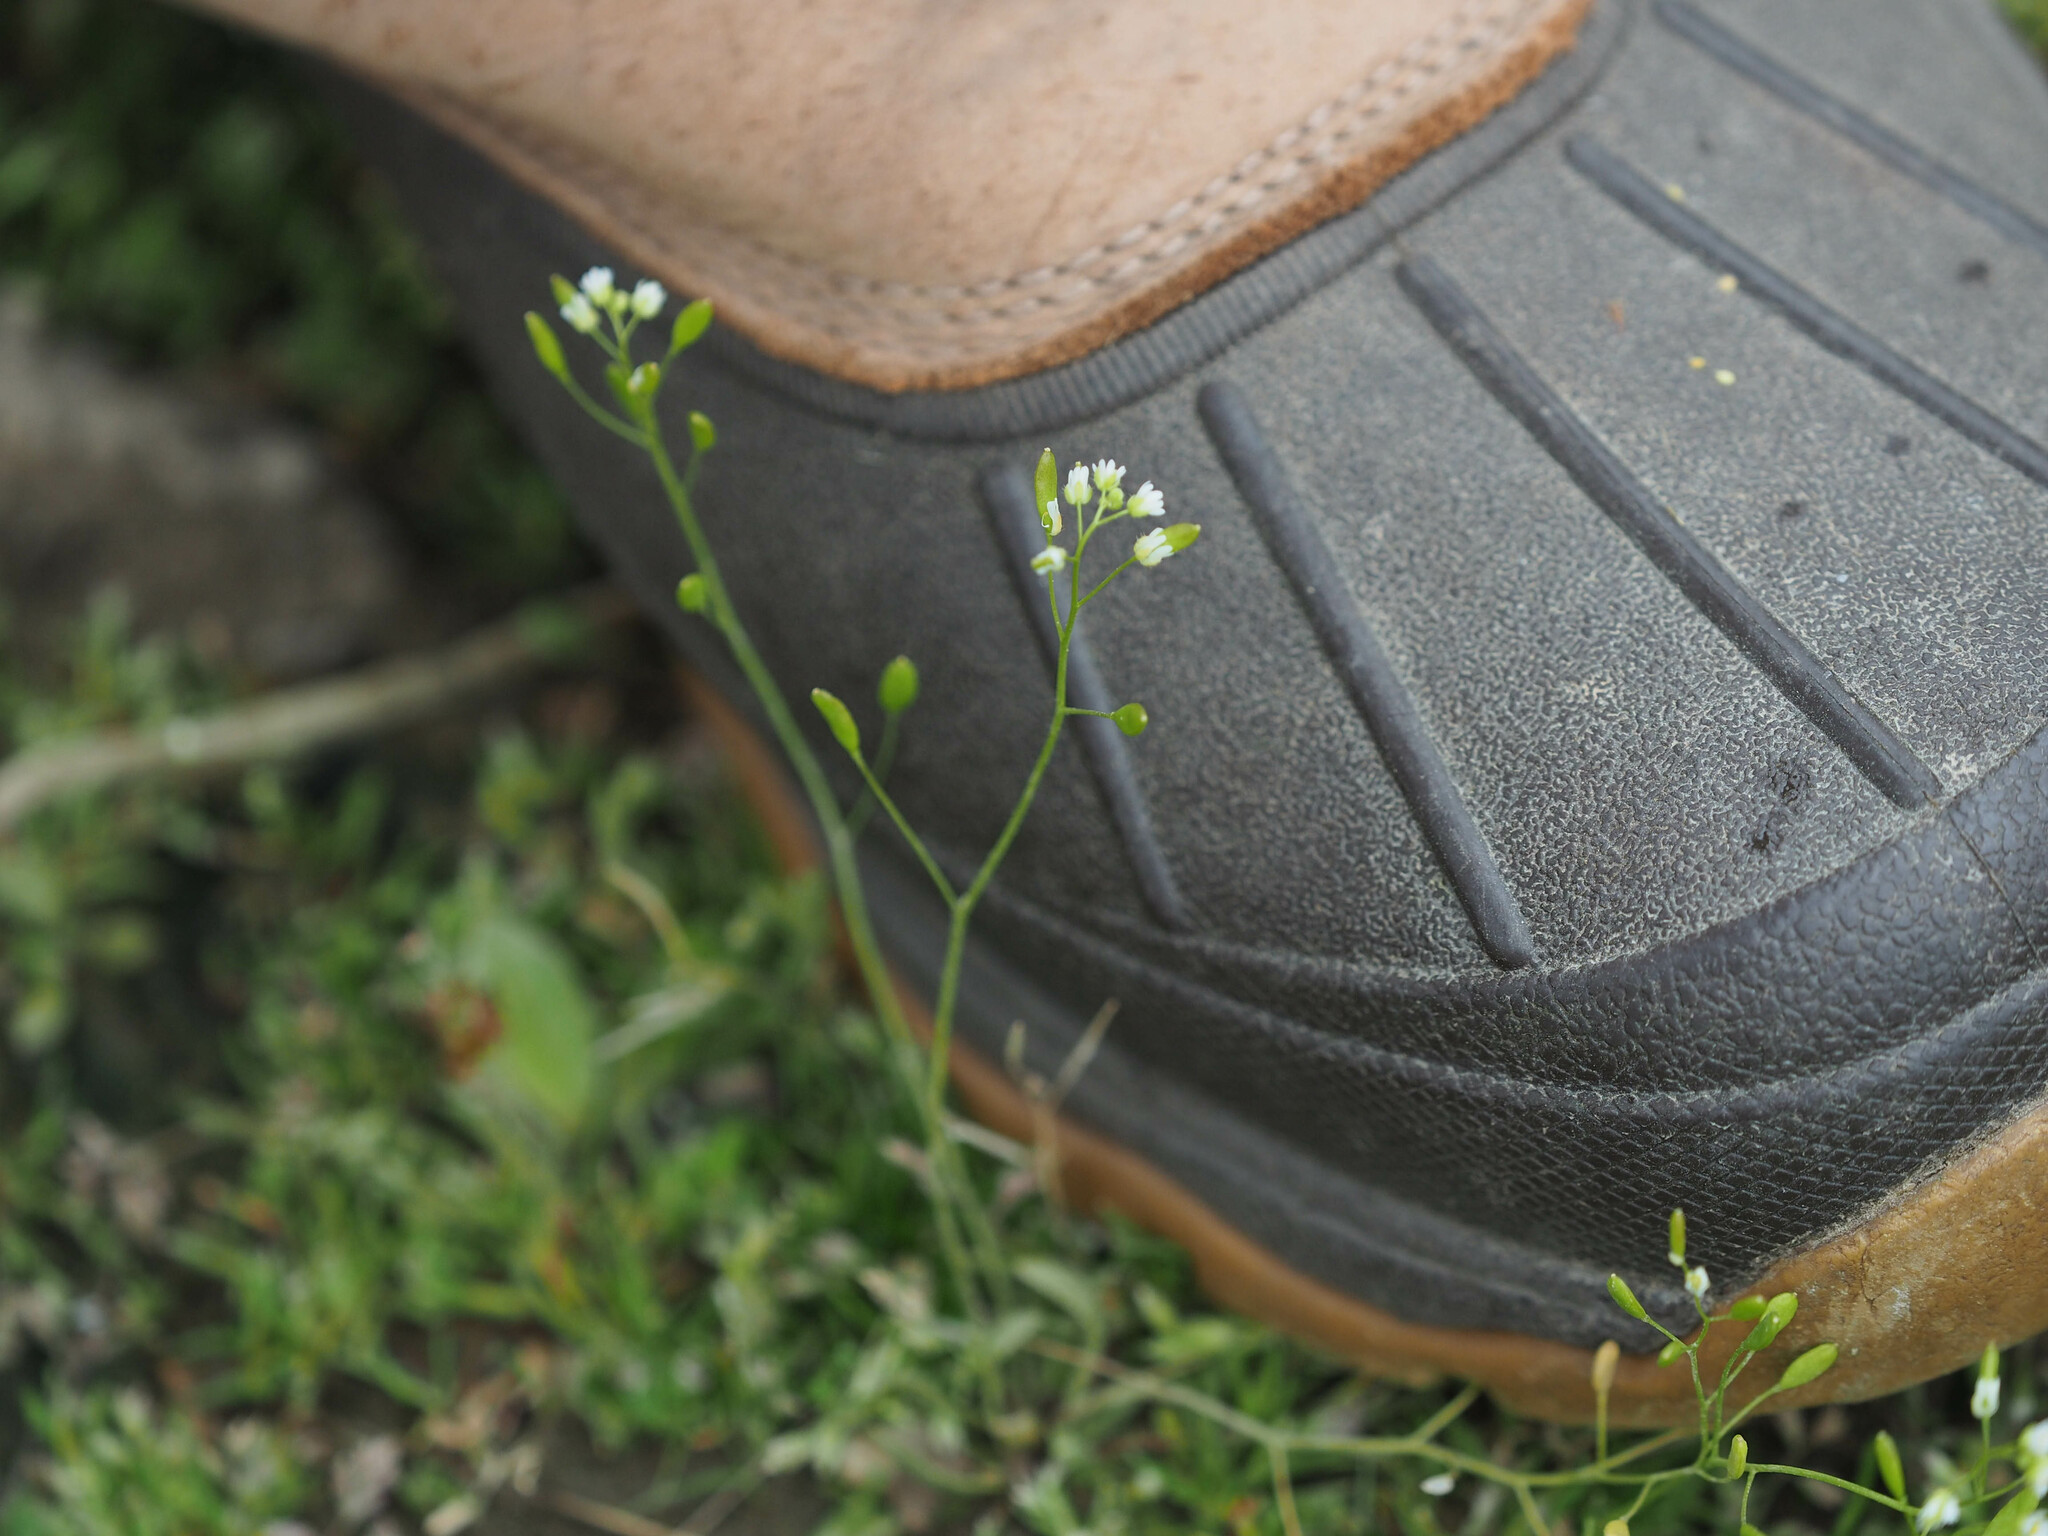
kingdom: Plantae
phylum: Tracheophyta
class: Magnoliopsida
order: Brassicales
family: Brassicaceae
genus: Draba
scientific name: Draba verna
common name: Spring draba
